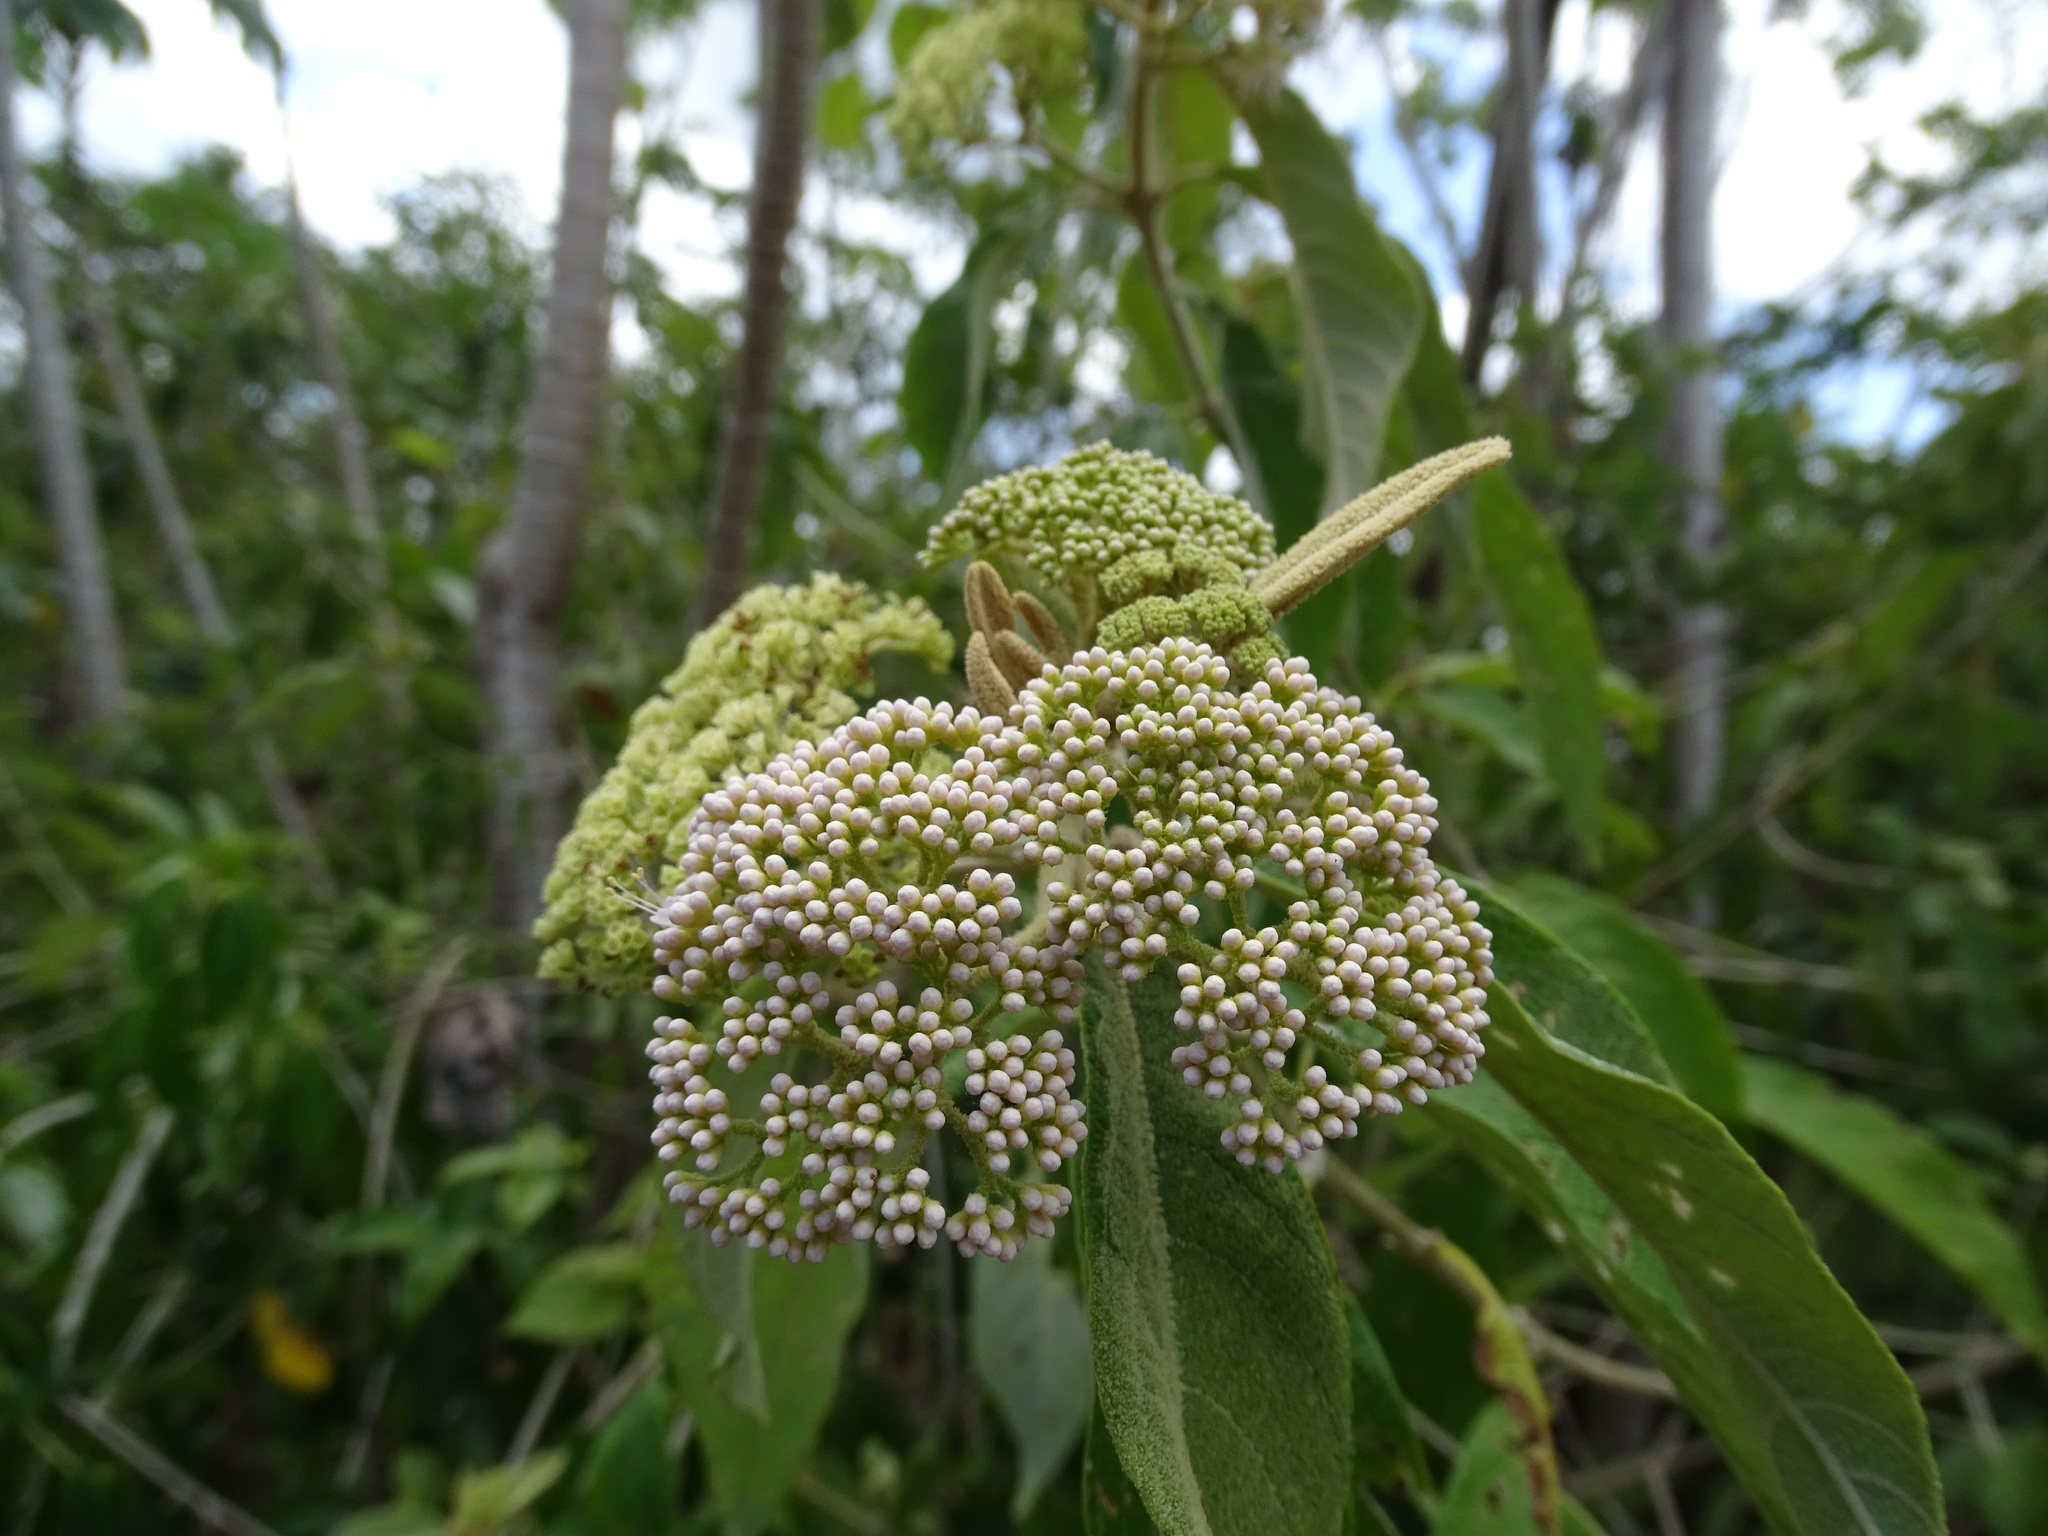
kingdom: Plantae
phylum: Tracheophyta
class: Magnoliopsida
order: Lamiales
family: Lamiaceae
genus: Callicarpa
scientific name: Callicarpa acuminata
